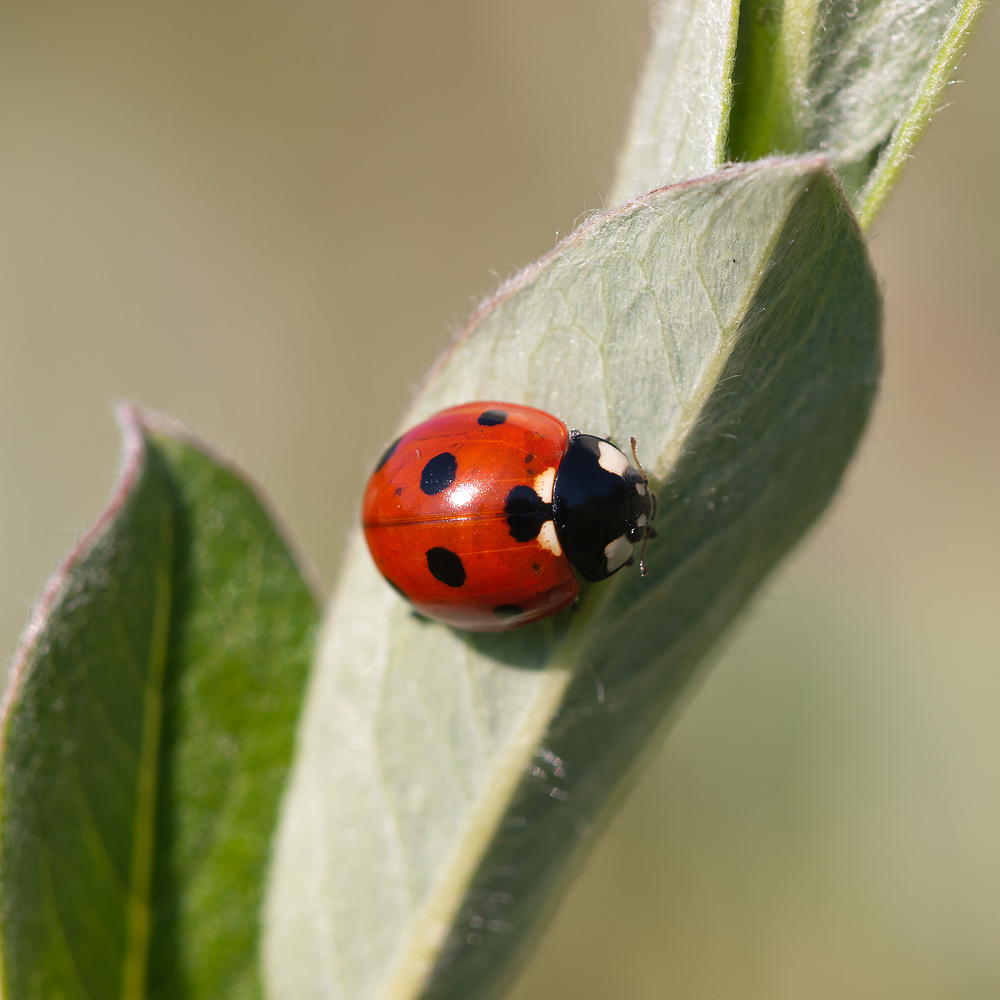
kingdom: Animalia
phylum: Arthropoda
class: Insecta
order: Coleoptera
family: Coccinellidae
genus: Coccinella
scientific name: Coccinella septempunctata
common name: Sevenspotted lady beetle
